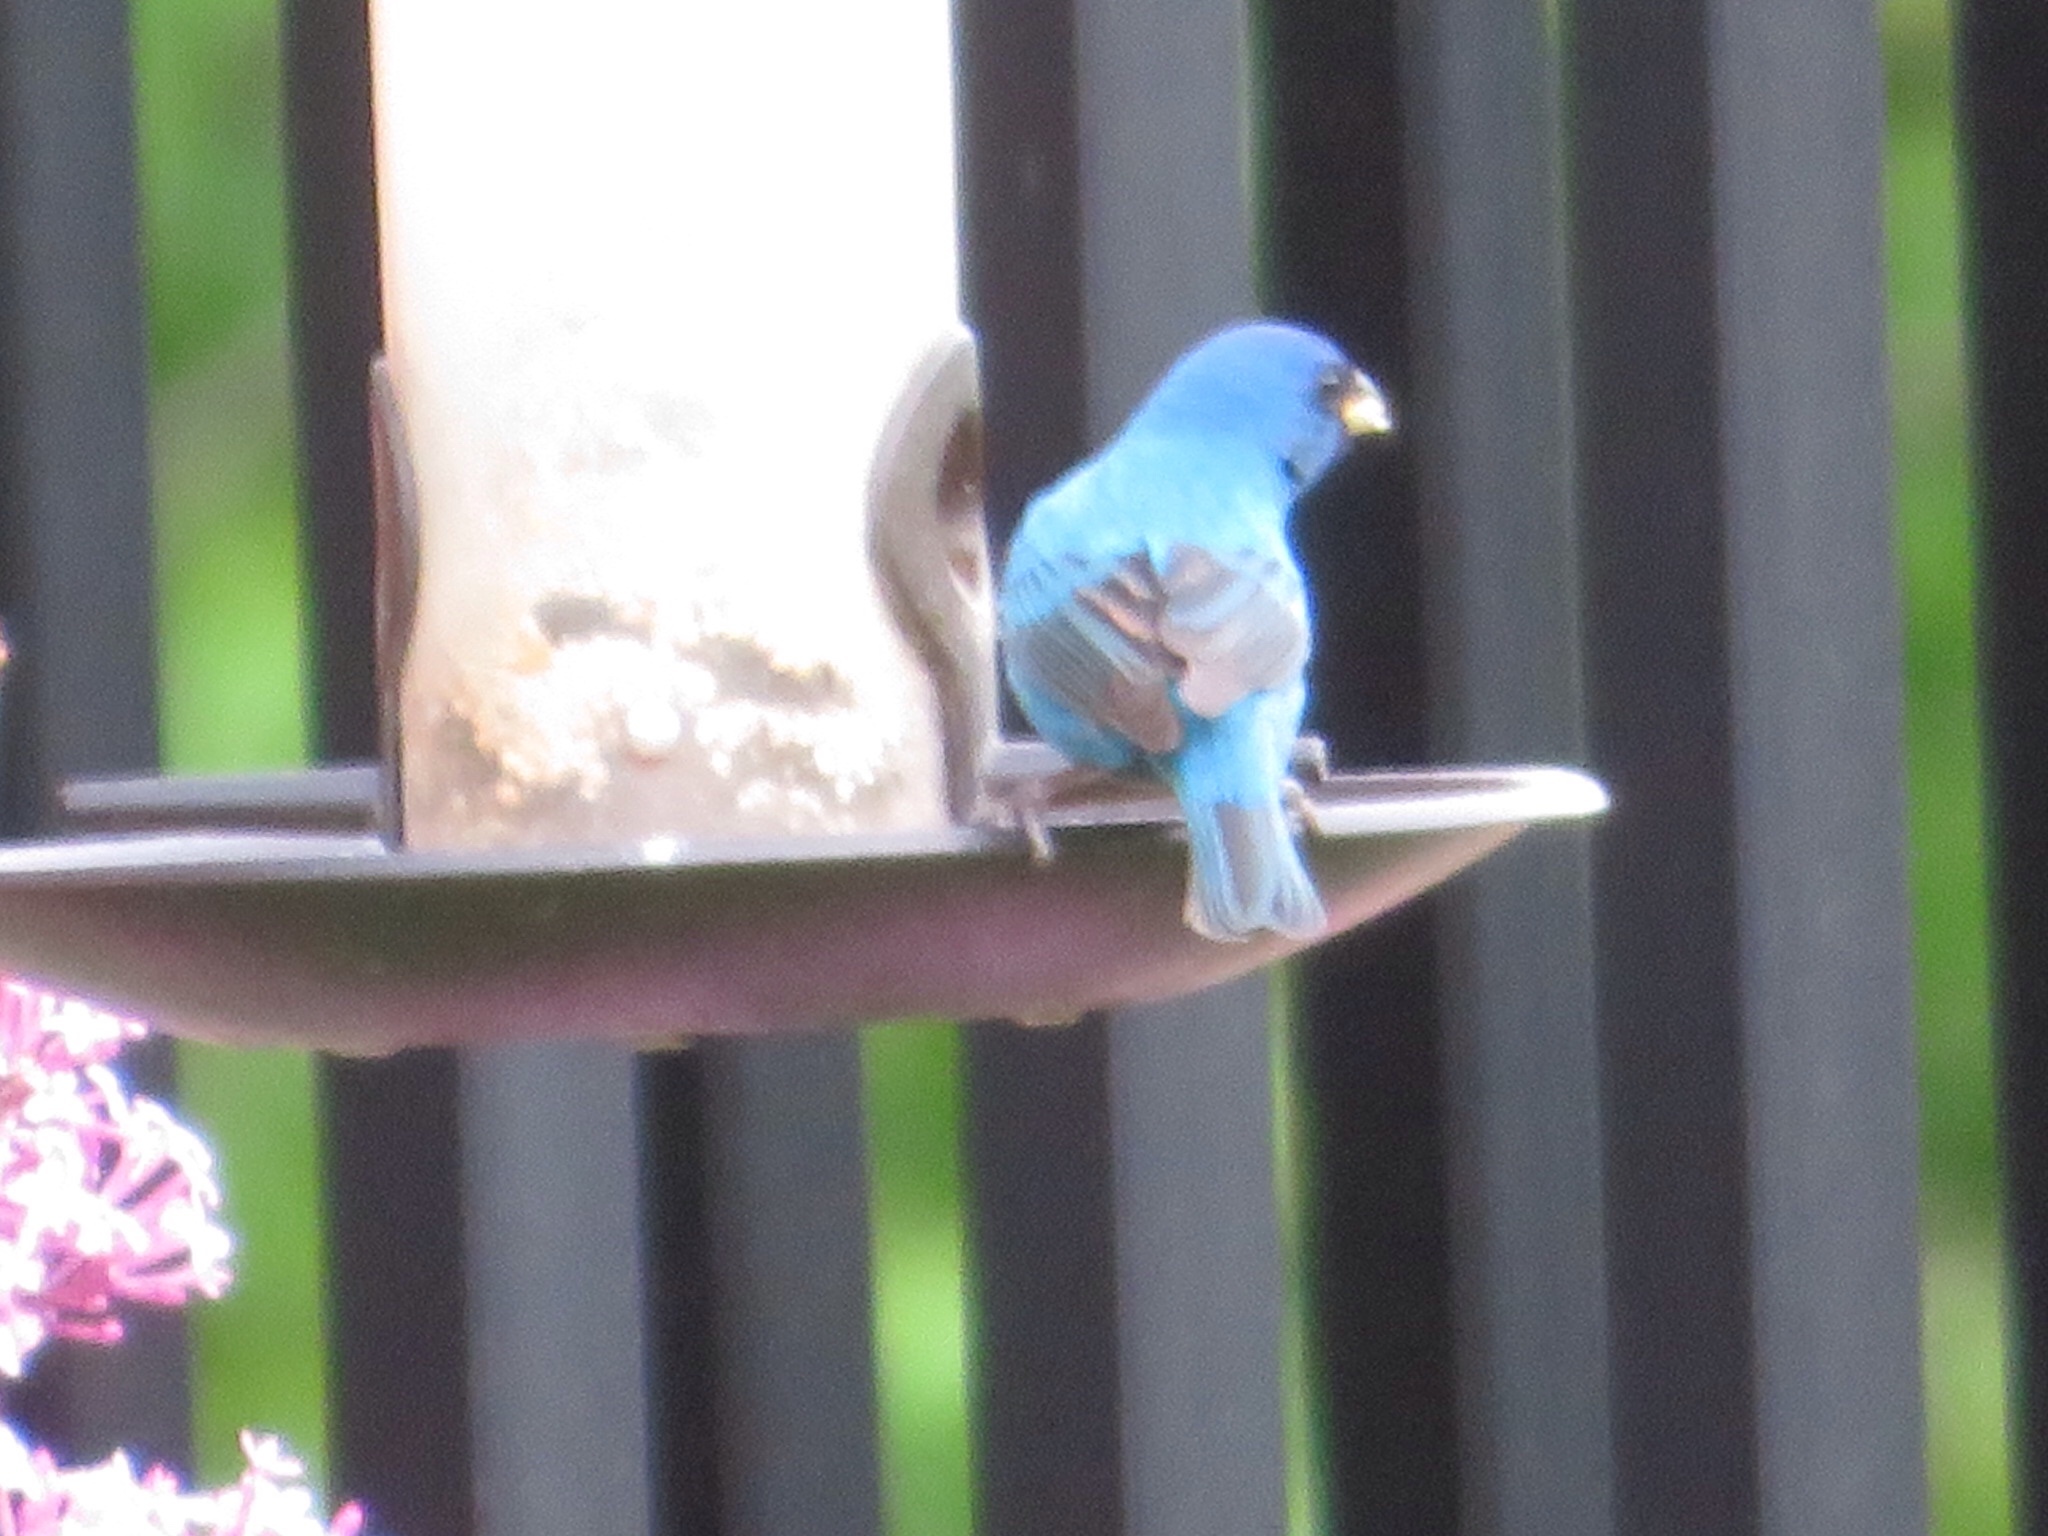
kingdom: Animalia
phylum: Chordata
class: Aves
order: Passeriformes
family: Cardinalidae
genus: Passerina
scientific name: Passerina cyanea
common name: Indigo bunting
